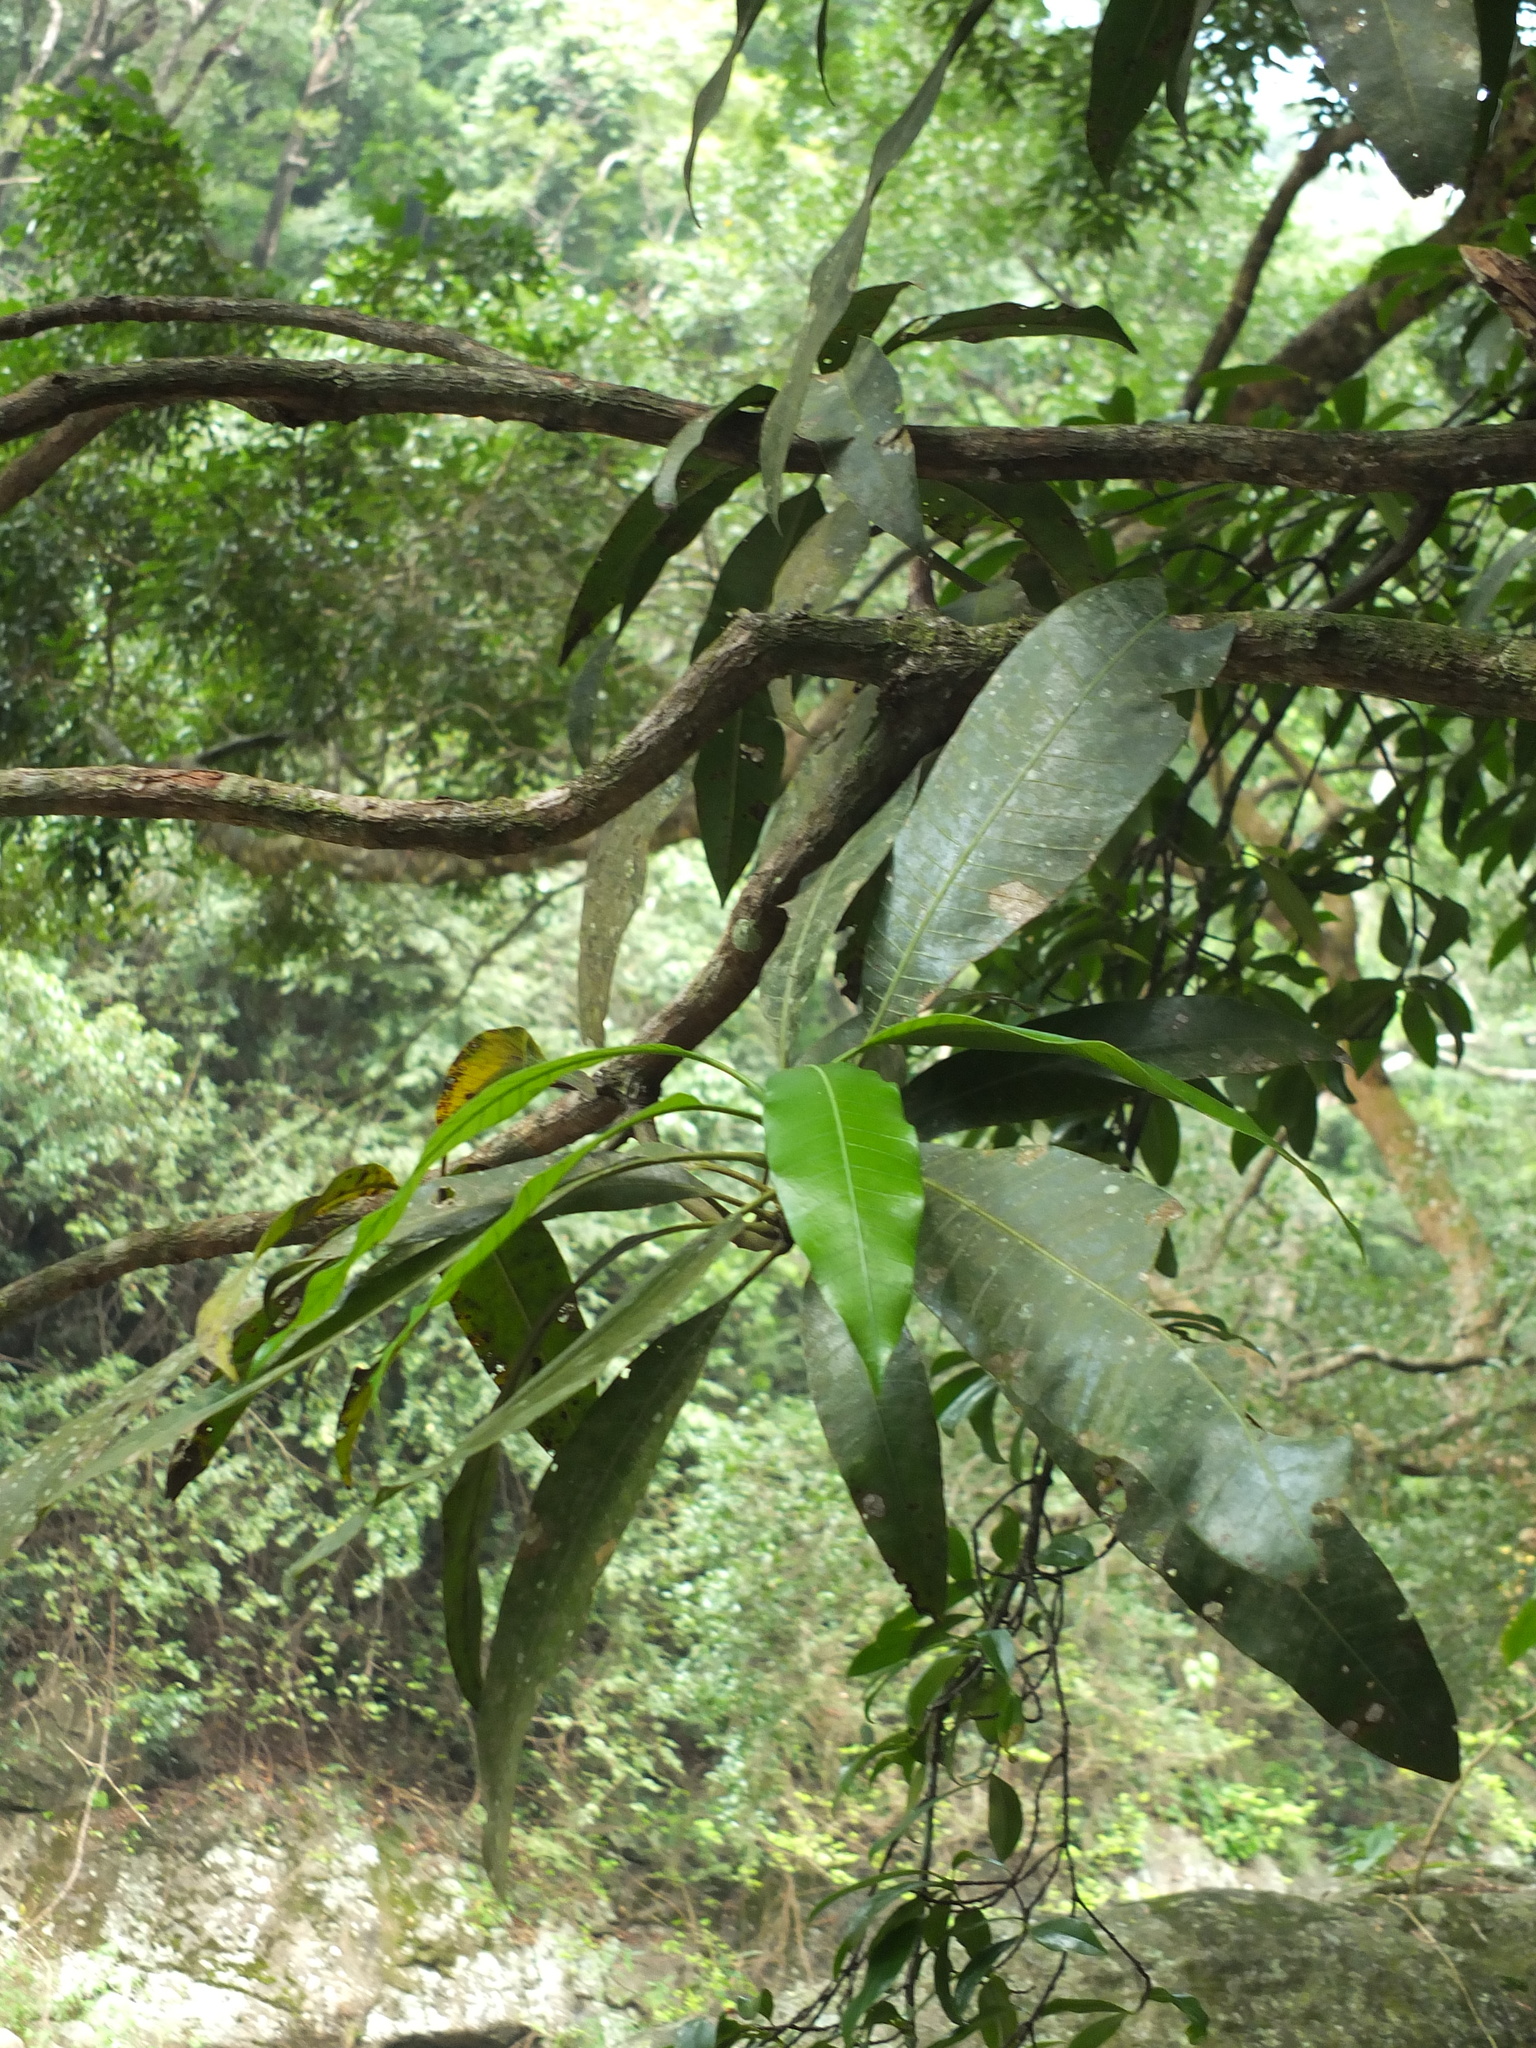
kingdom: Plantae
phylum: Tracheophyta
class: Magnoliopsida
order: Sapindales
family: Anacardiaceae
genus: Mangifera
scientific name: Mangifera indica
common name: Mango
